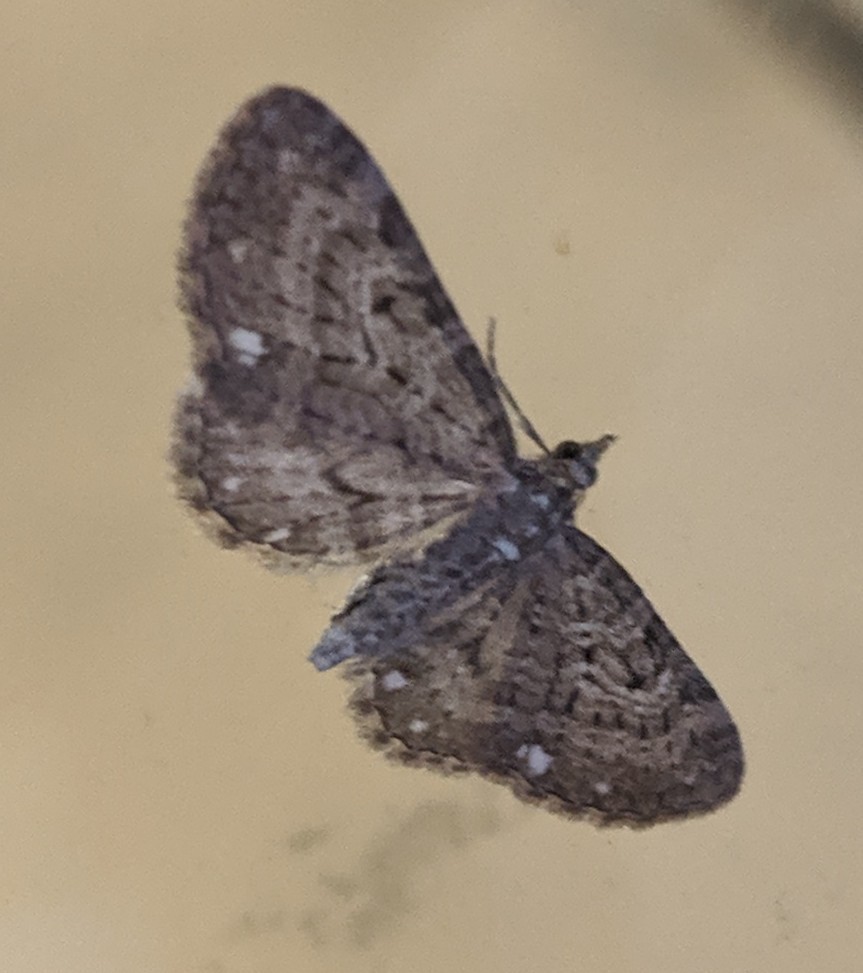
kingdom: Animalia
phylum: Arthropoda
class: Insecta
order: Lepidoptera
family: Geometridae
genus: Eupithecia
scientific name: Eupithecia tripunctaria
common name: White-spotted pug
